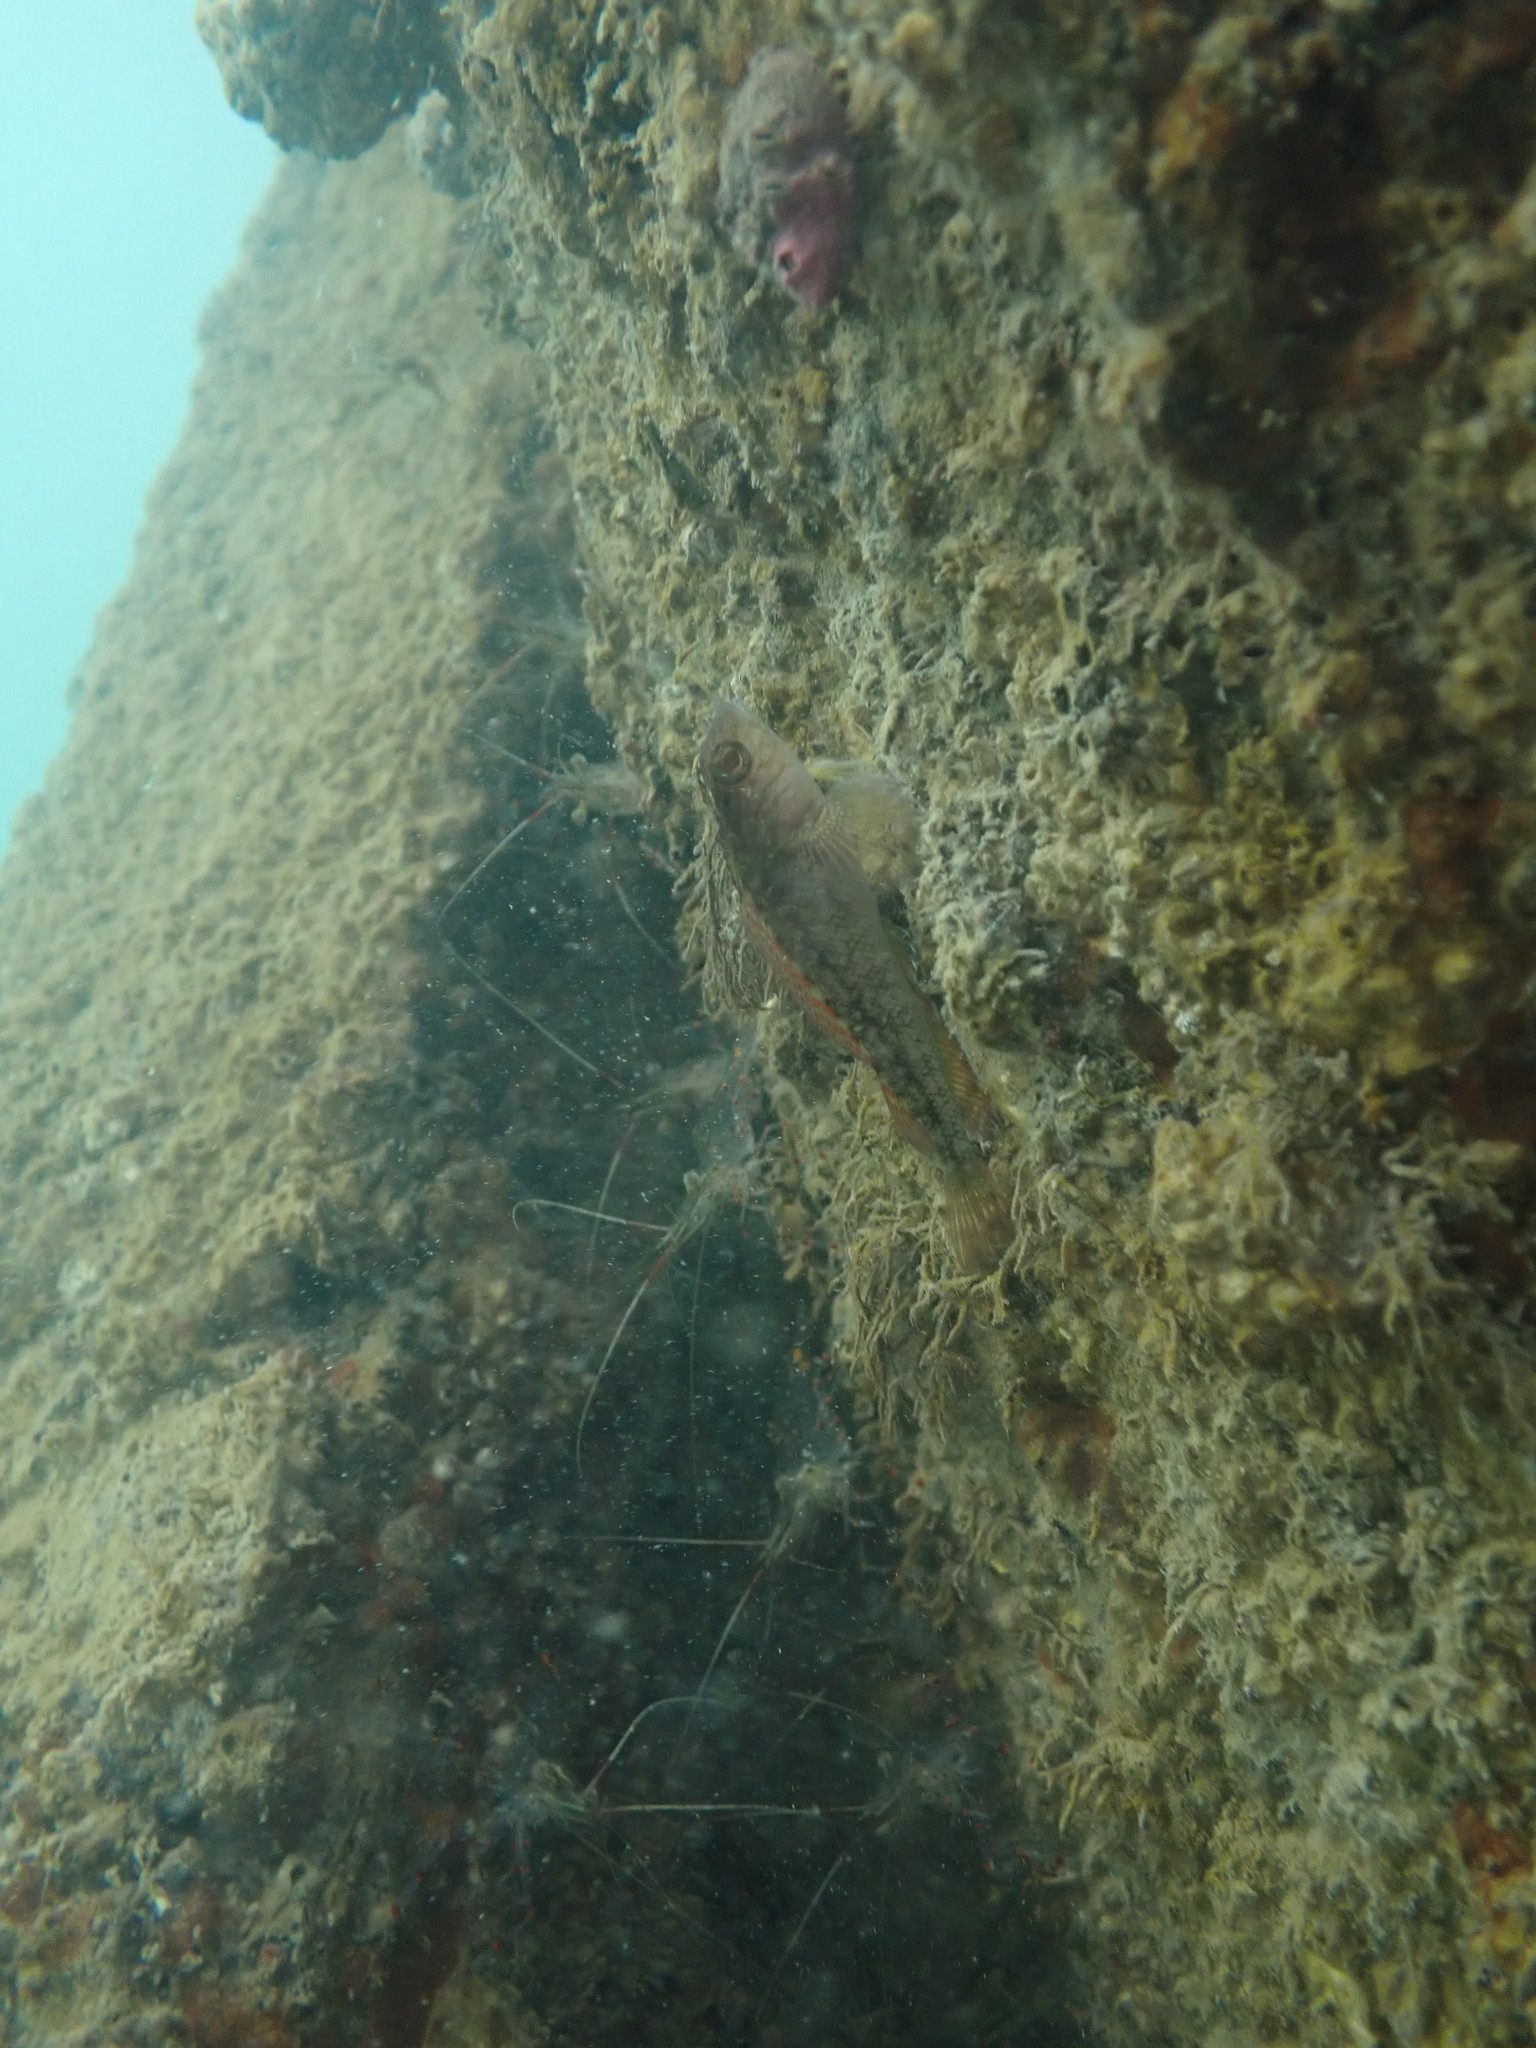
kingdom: Animalia
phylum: Chordata
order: Perciformes
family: Tripterygiidae
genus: Forsterygion
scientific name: Forsterygion lapillum
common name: Common triplefin
